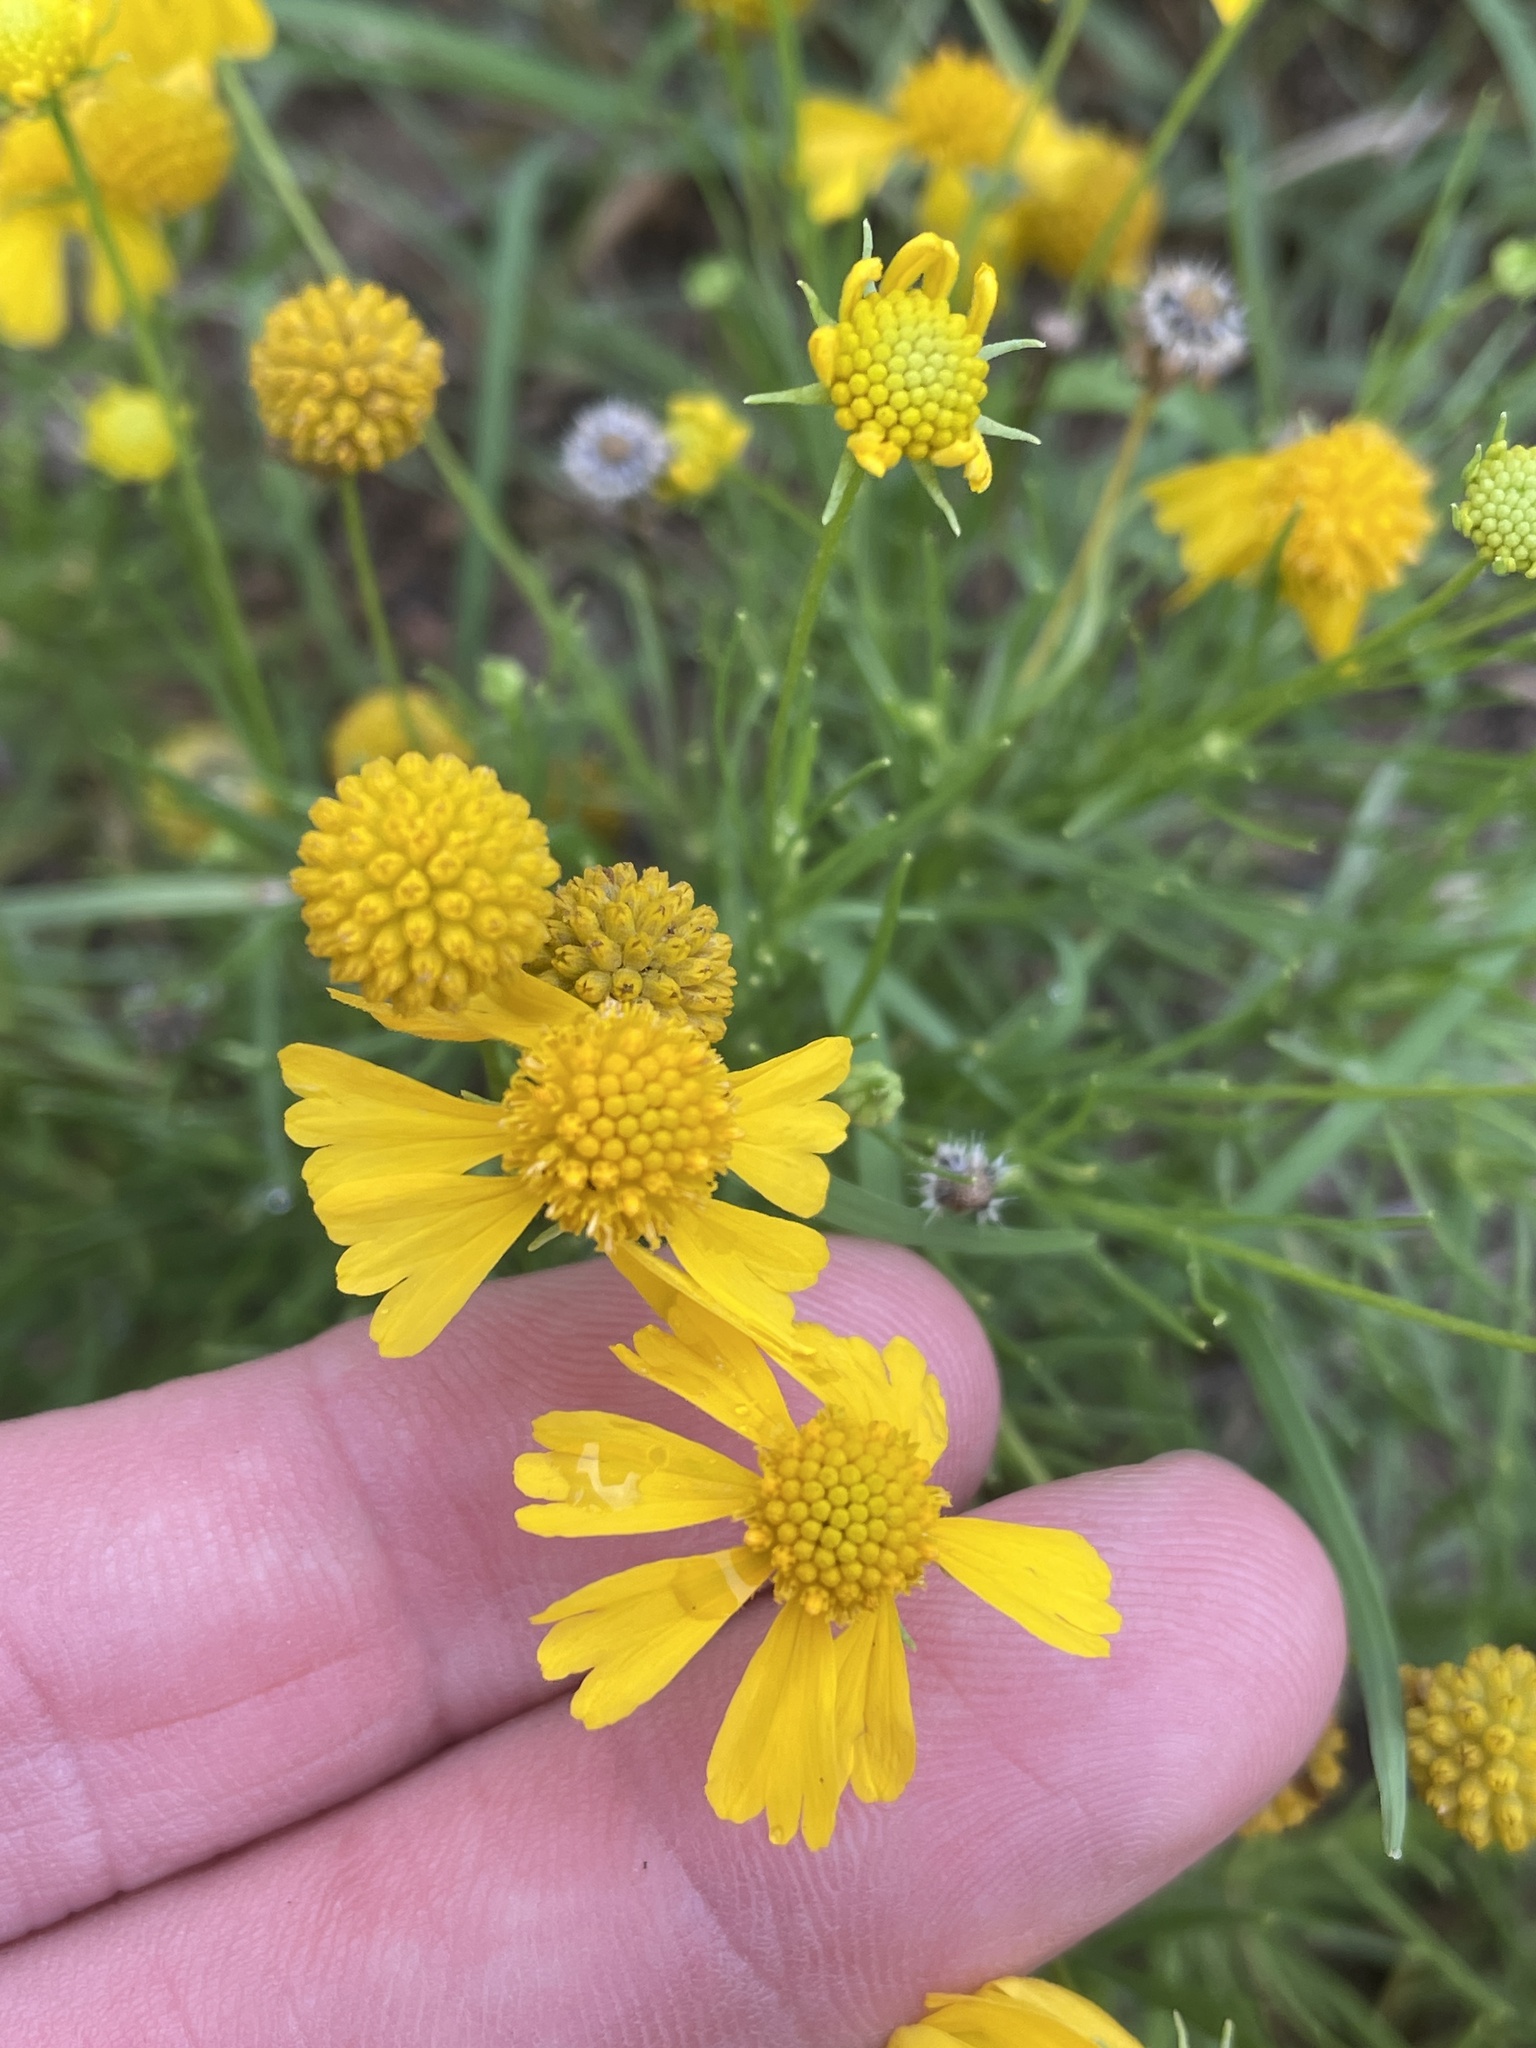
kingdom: Plantae
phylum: Tracheophyta
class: Magnoliopsida
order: Asterales
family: Asteraceae
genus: Helenium
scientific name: Helenium amarum
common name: Bitter sneezeweed
